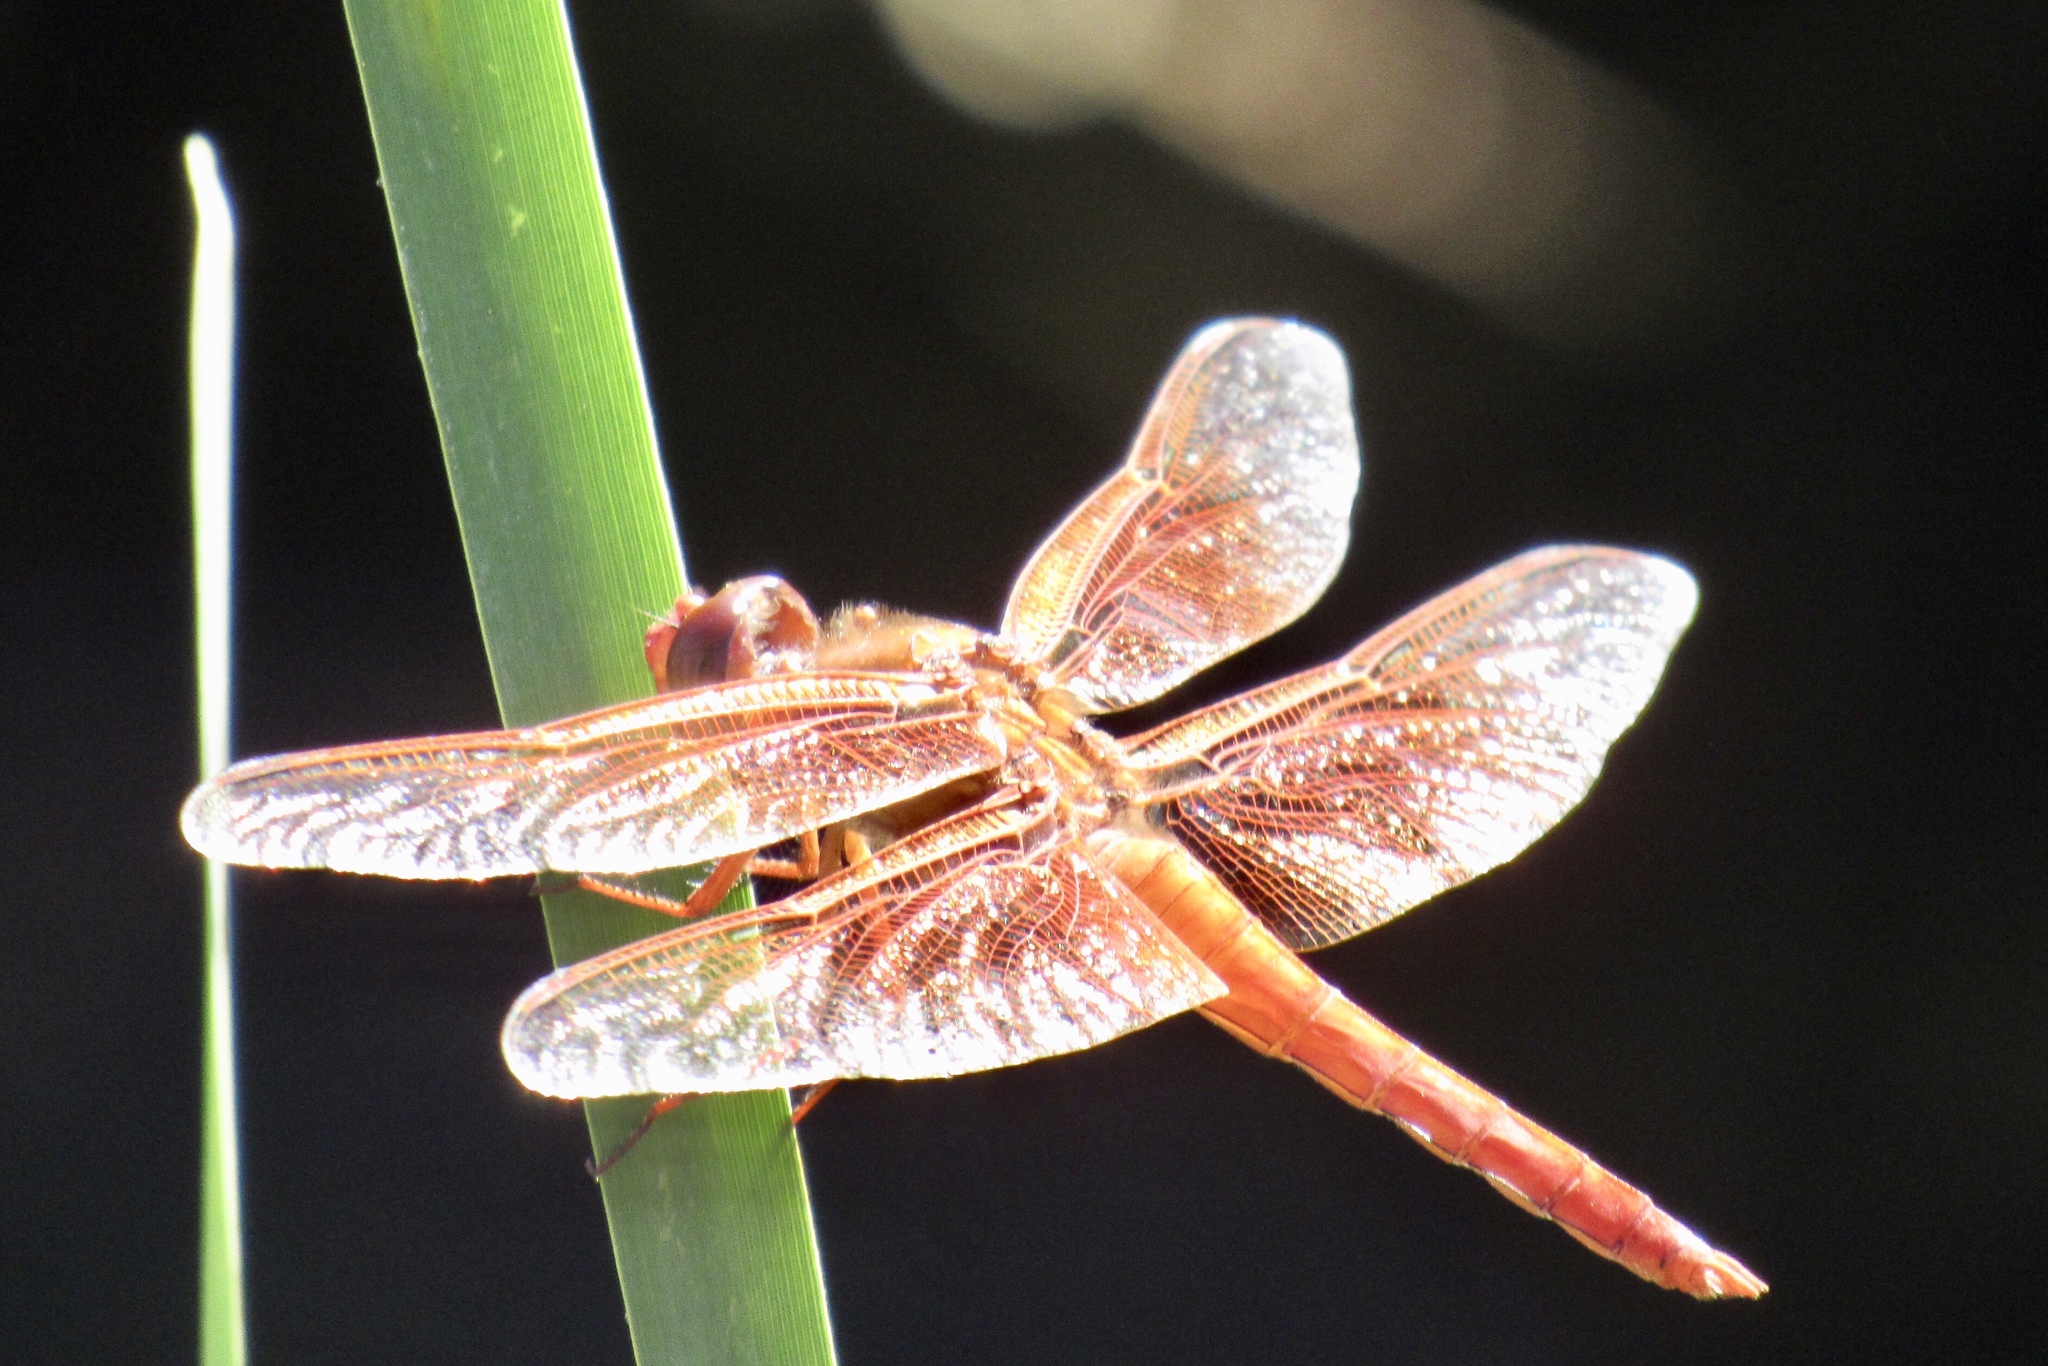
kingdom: Animalia
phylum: Arthropoda
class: Insecta
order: Odonata
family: Libellulidae
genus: Libellula
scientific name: Libellula saturata
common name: Flame skimmer
